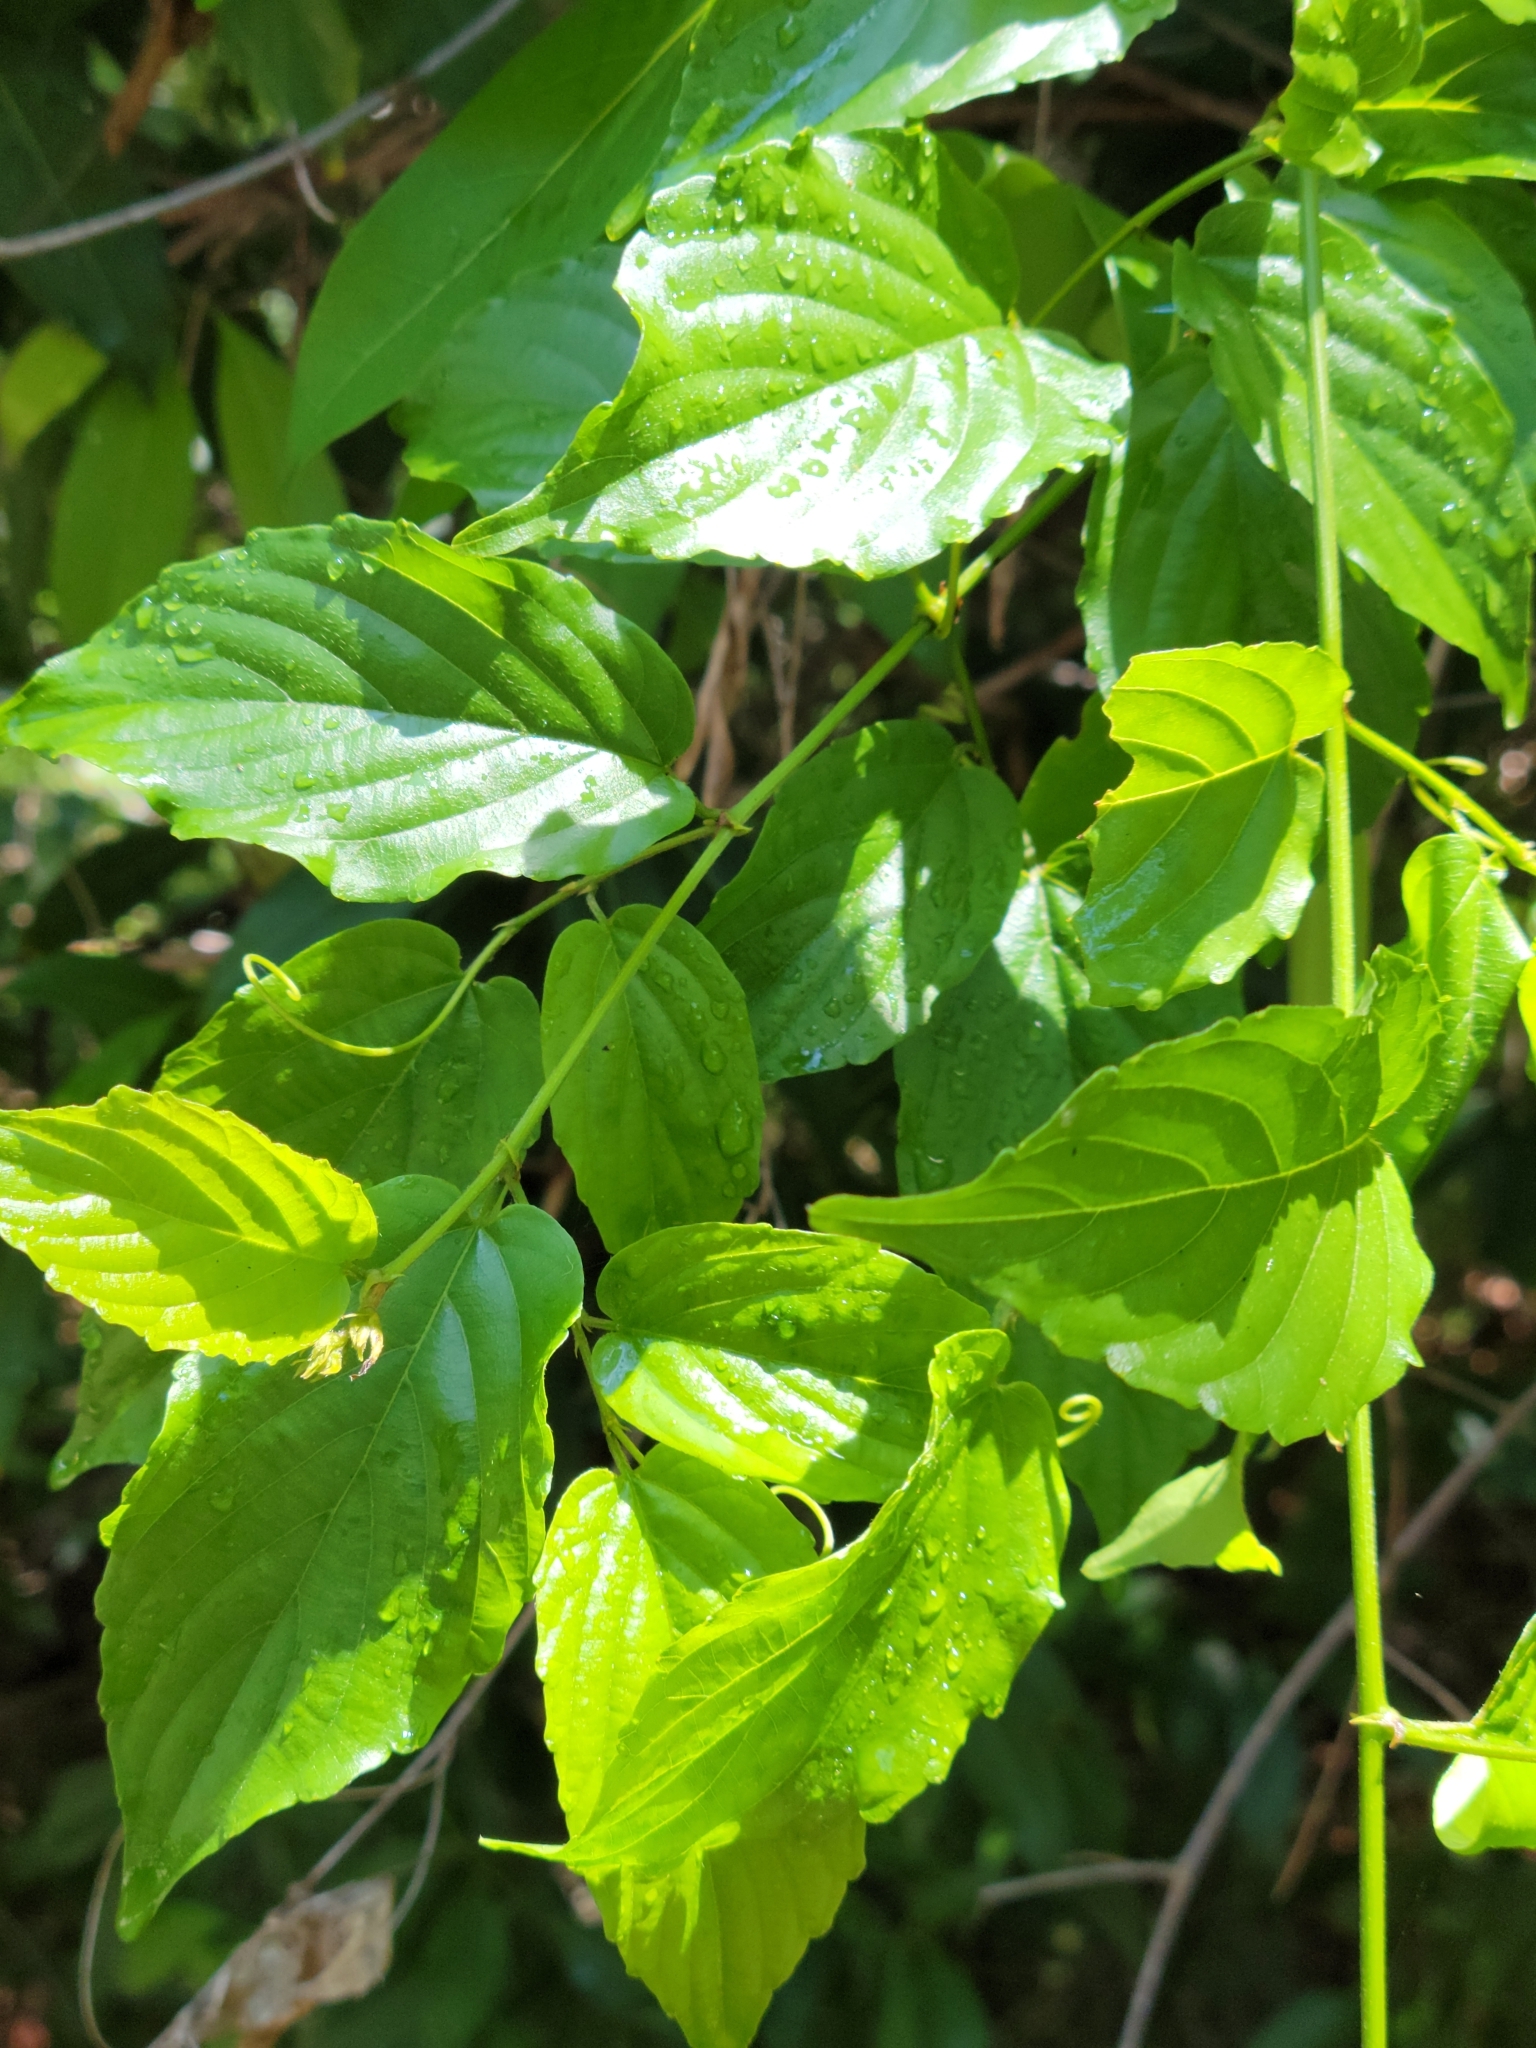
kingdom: Plantae
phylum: Tracheophyta
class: Magnoliopsida
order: Rosales
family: Rhamnaceae
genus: Gouania
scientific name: Gouania lupuloides
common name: Chewstick
